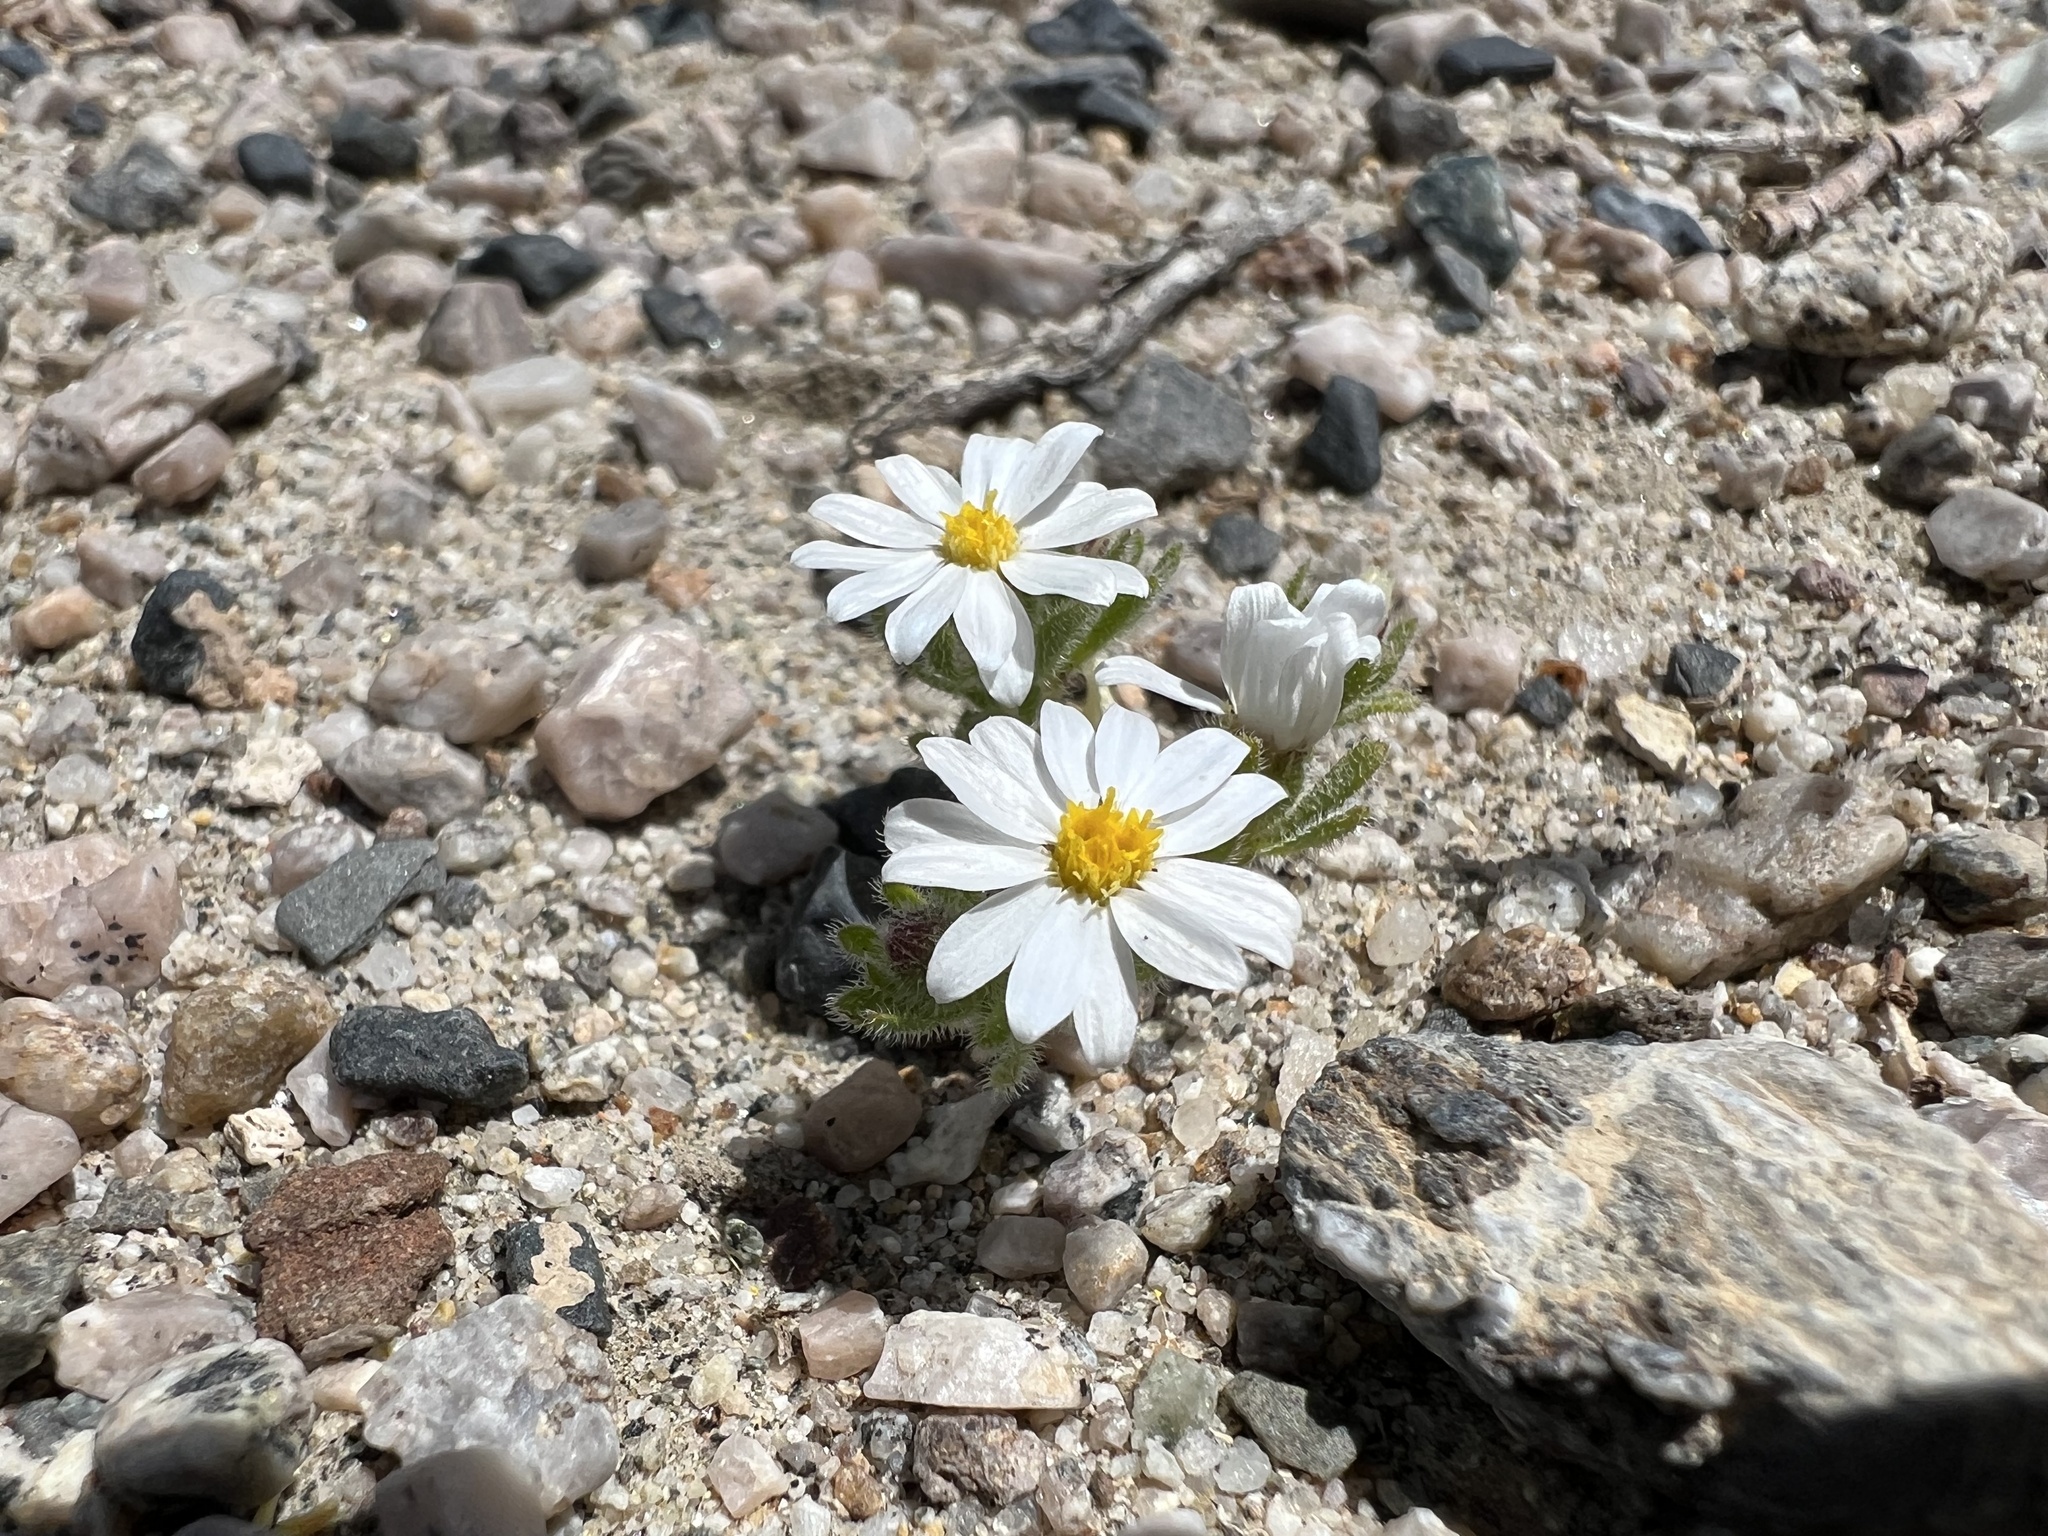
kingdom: Plantae
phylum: Tracheophyta
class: Magnoliopsida
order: Asterales
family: Asteraceae
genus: Monoptilon
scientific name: Monoptilon bellioides
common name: Bristly desertstar
